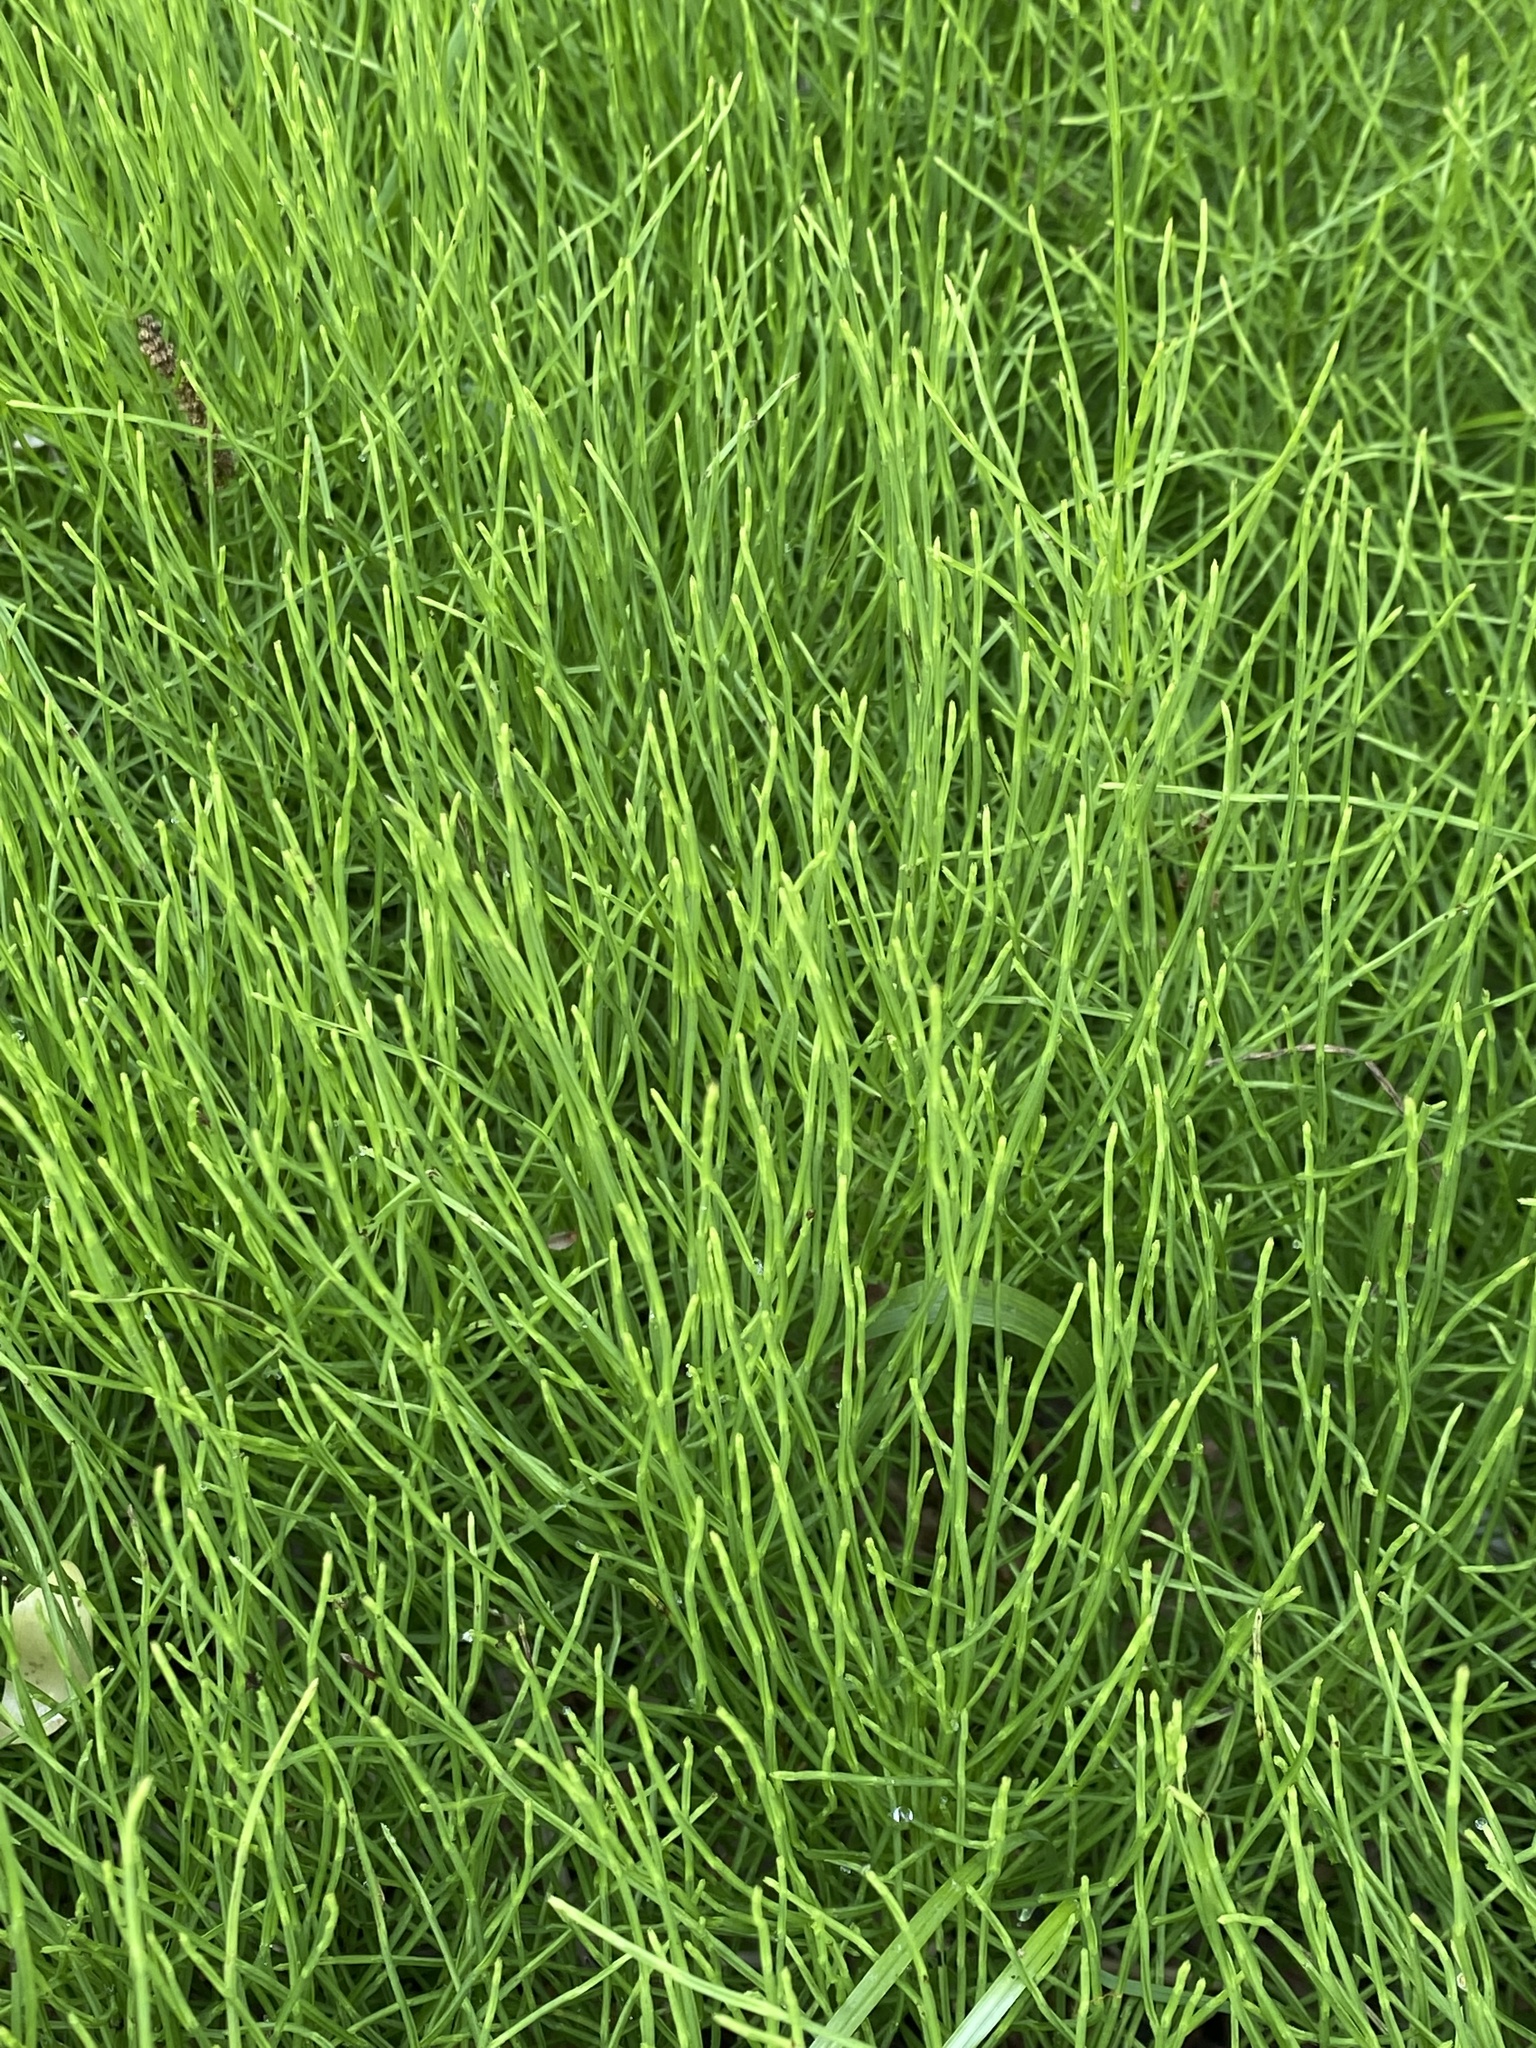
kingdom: Plantae
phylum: Tracheophyta
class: Polypodiopsida
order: Equisetales
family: Equisetaceae
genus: Equisetum
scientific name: Equisetum arvense
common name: Field horsetail
